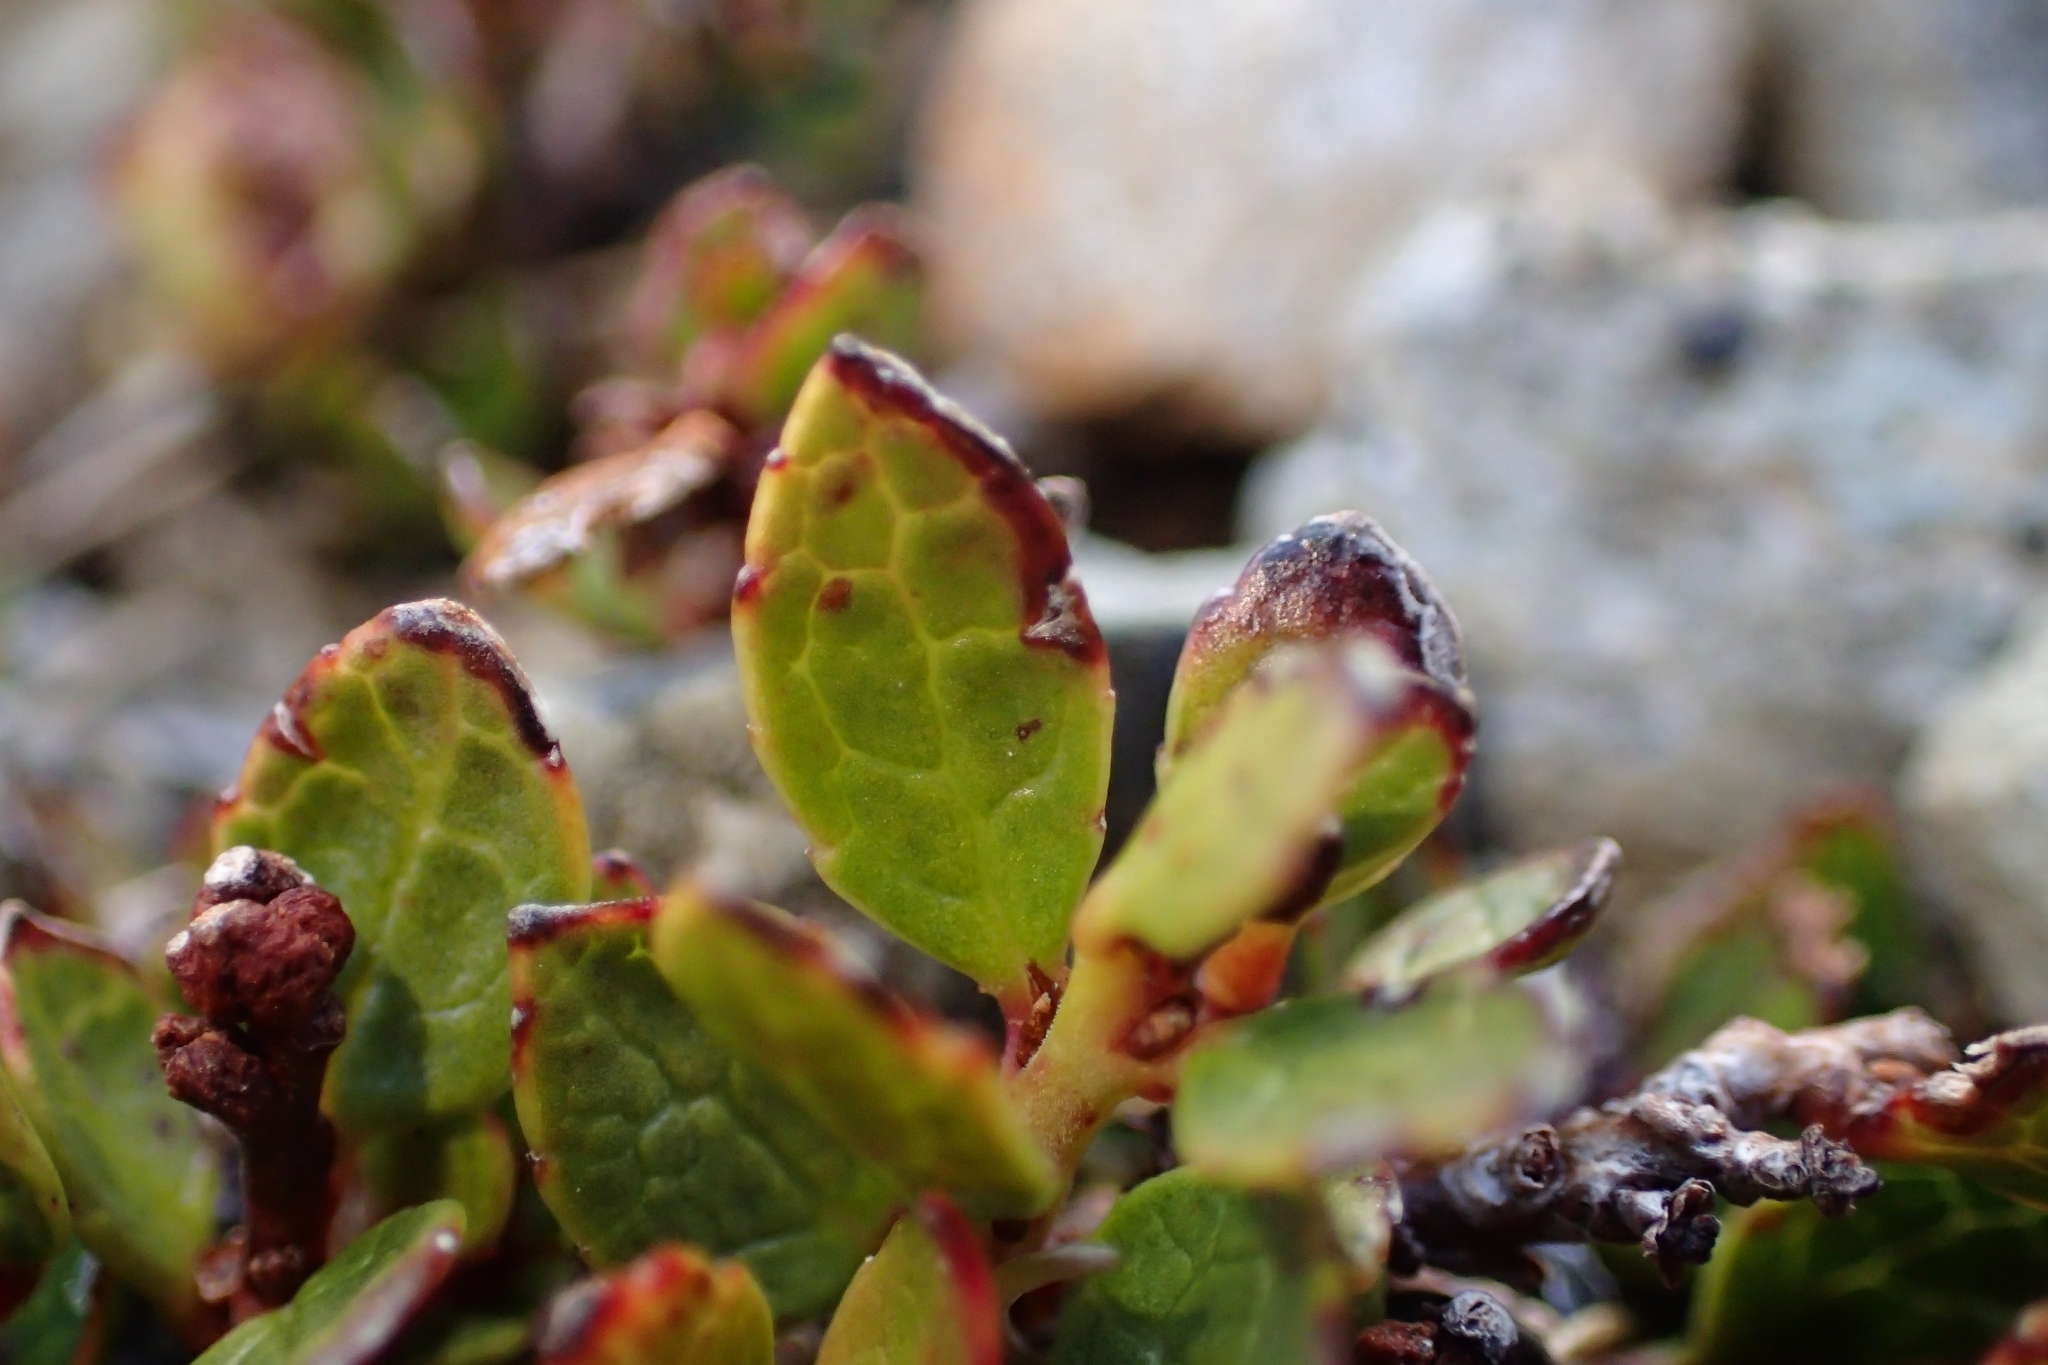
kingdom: Plantae
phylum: Tracheophyta
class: Magnoliopsida
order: Ericales
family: Ericaceae
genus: Gaultheria
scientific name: Gaultheria nubicola
